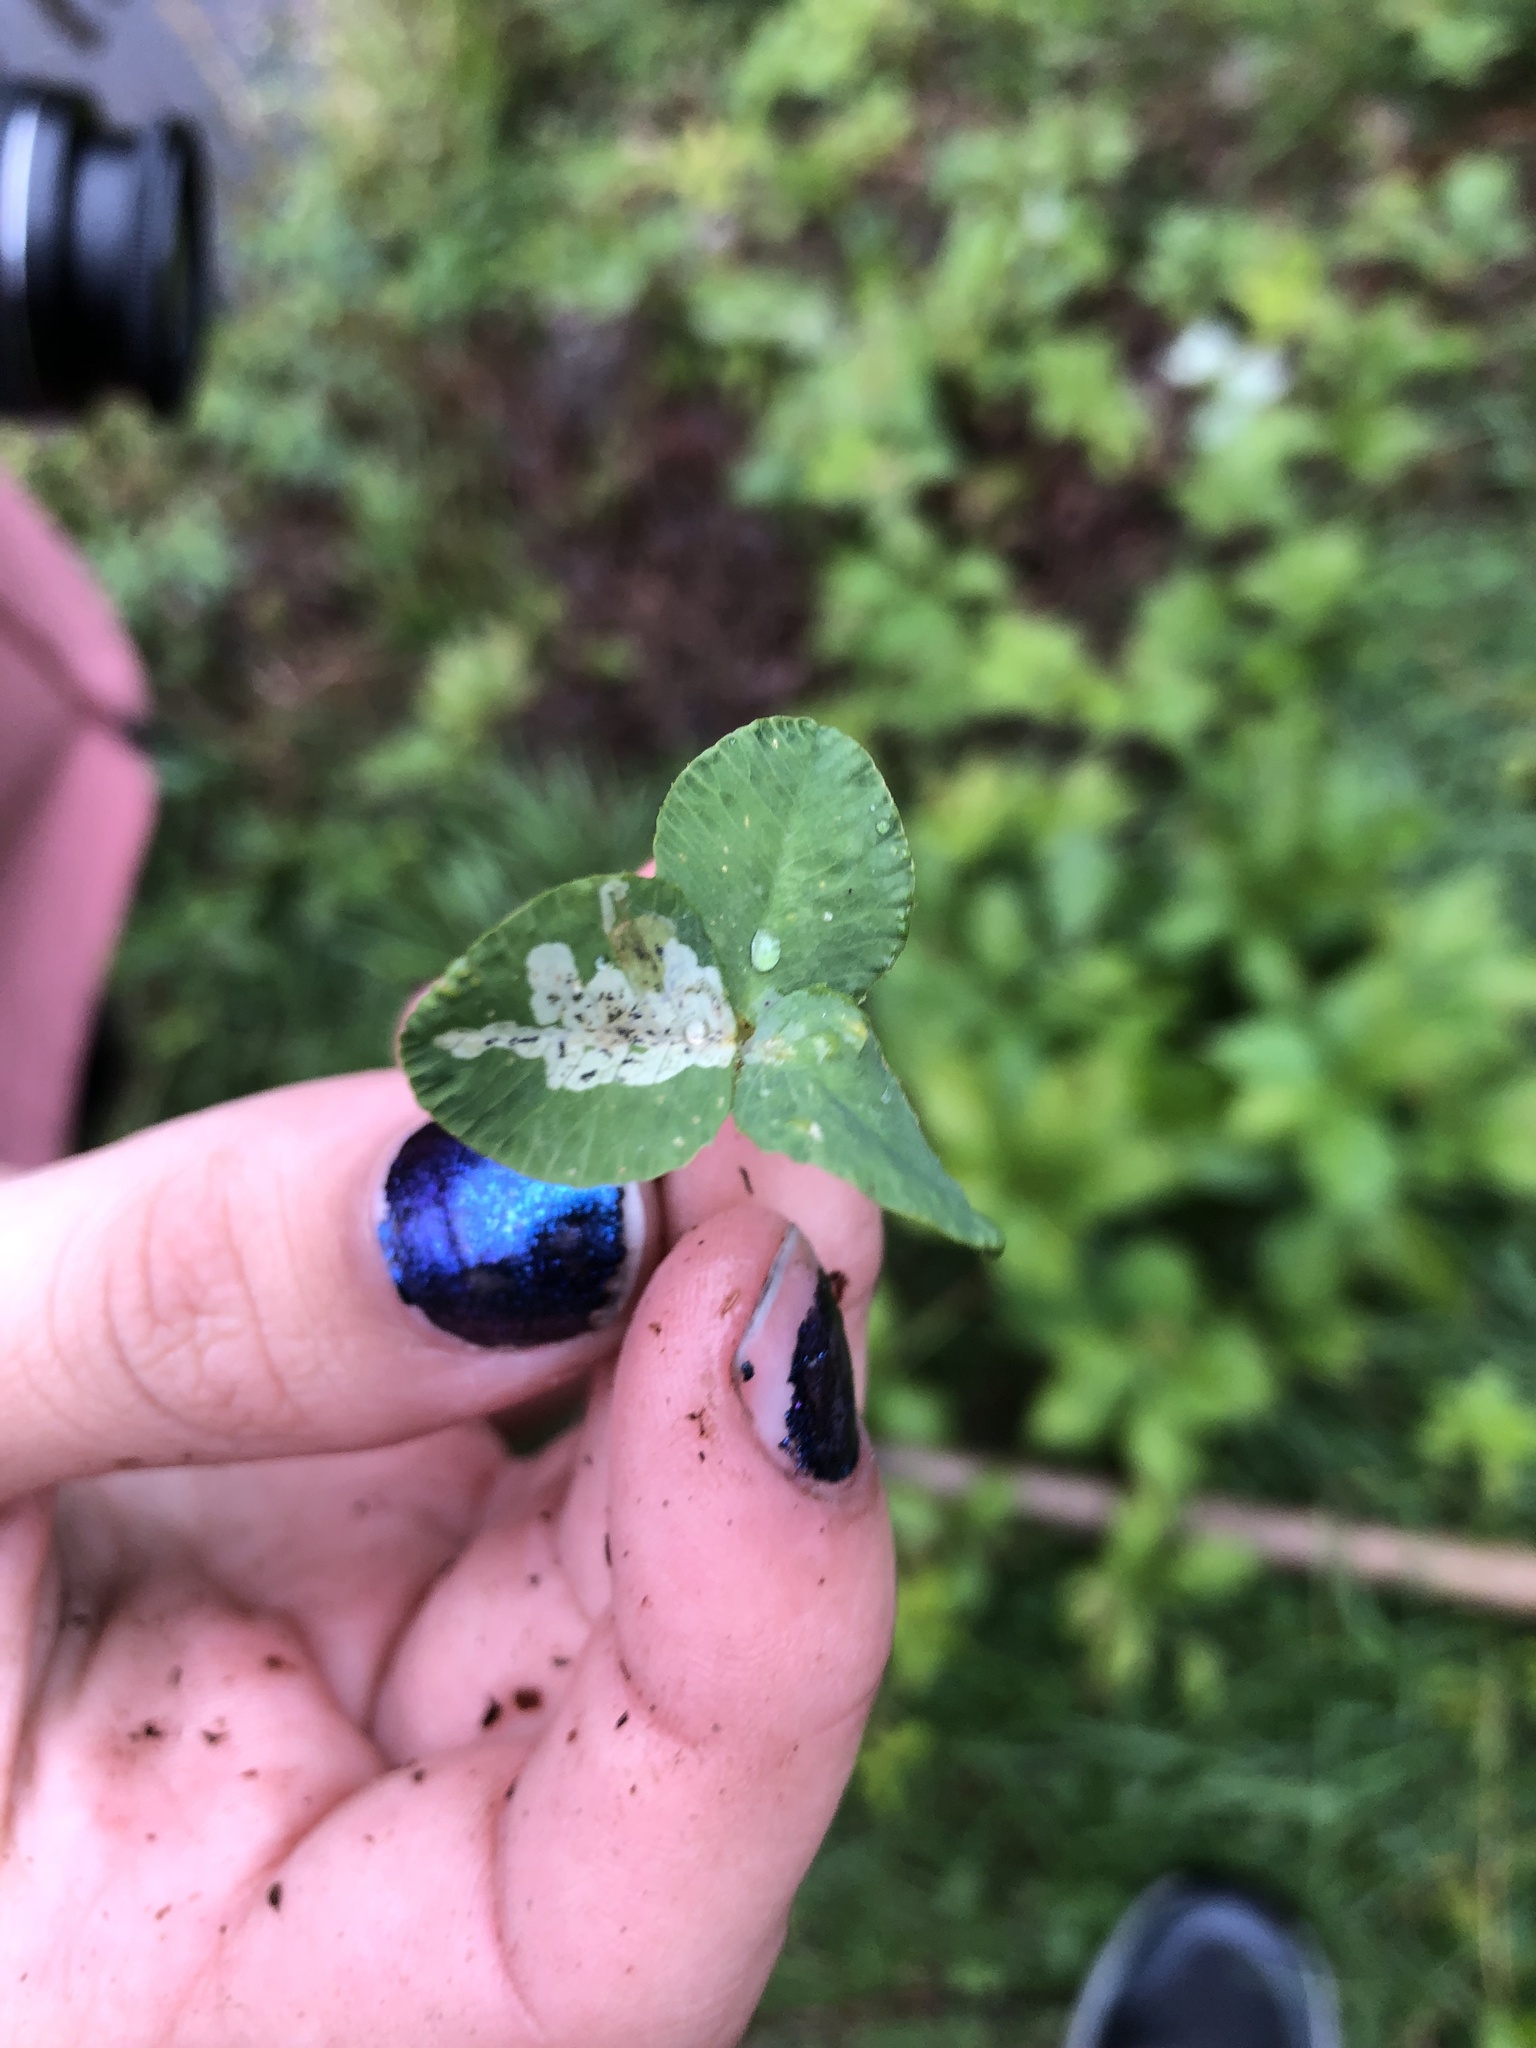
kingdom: Plantae
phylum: Tracheophyta
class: Magnoliopsida
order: Fabales
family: Fabaceae
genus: Trifolium
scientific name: Trifolium repens
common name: White clover
